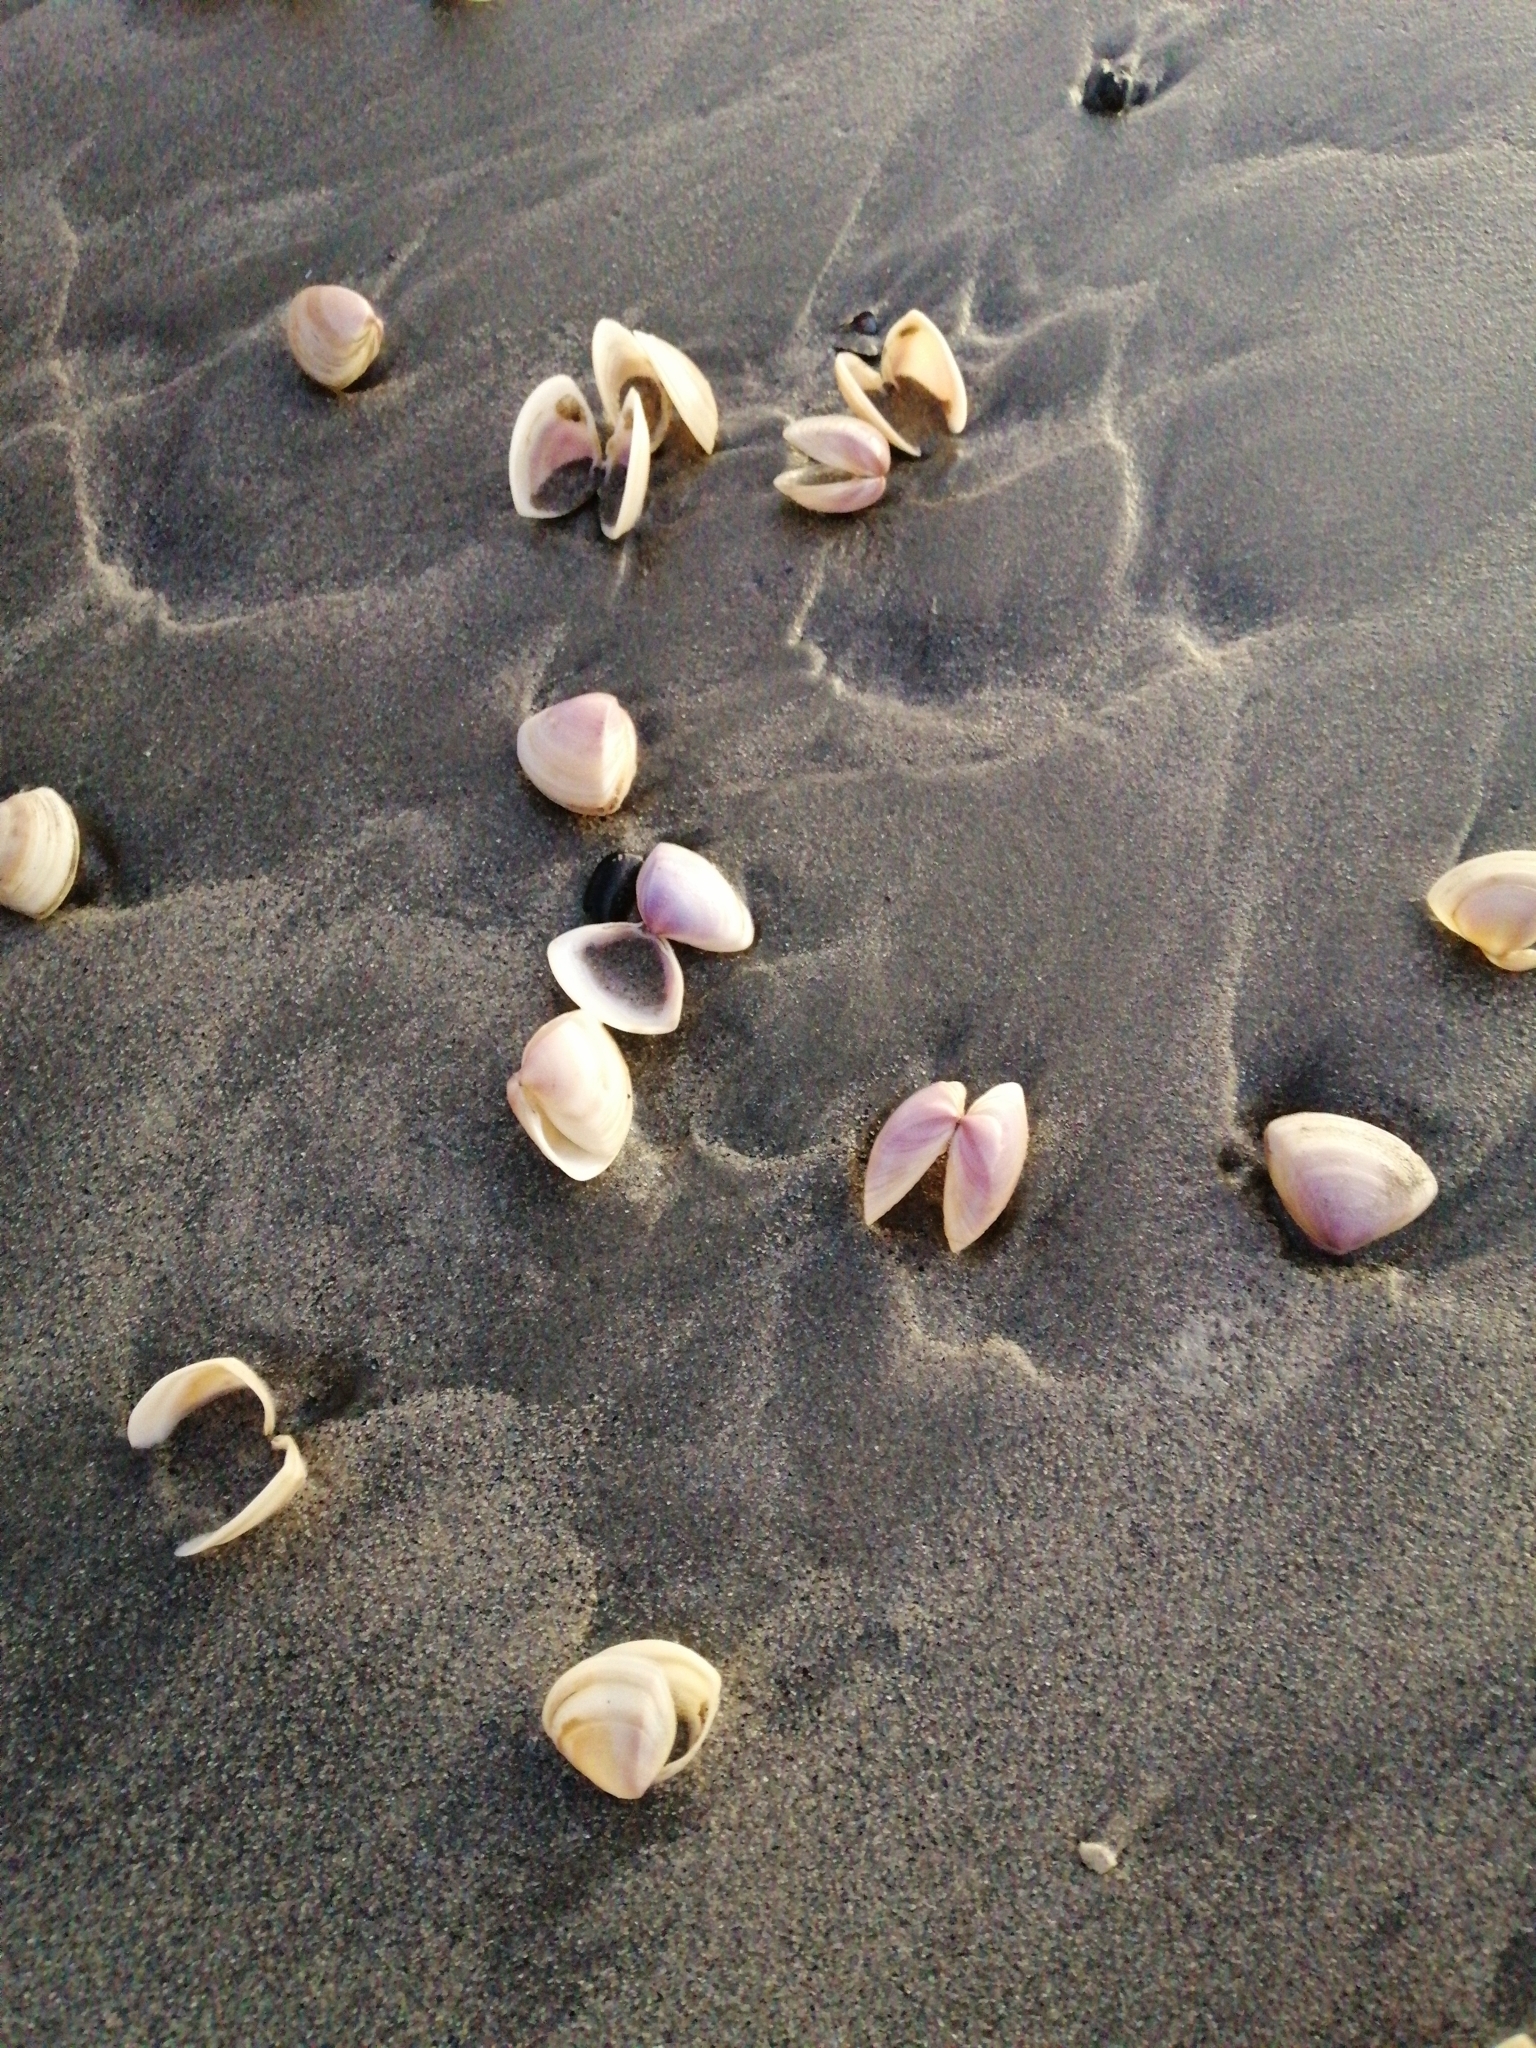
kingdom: Animalia
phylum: Mollusca
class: Bivalvia
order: Venerida
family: Mactridae
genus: Crassula
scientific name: Crassula aequilatera
